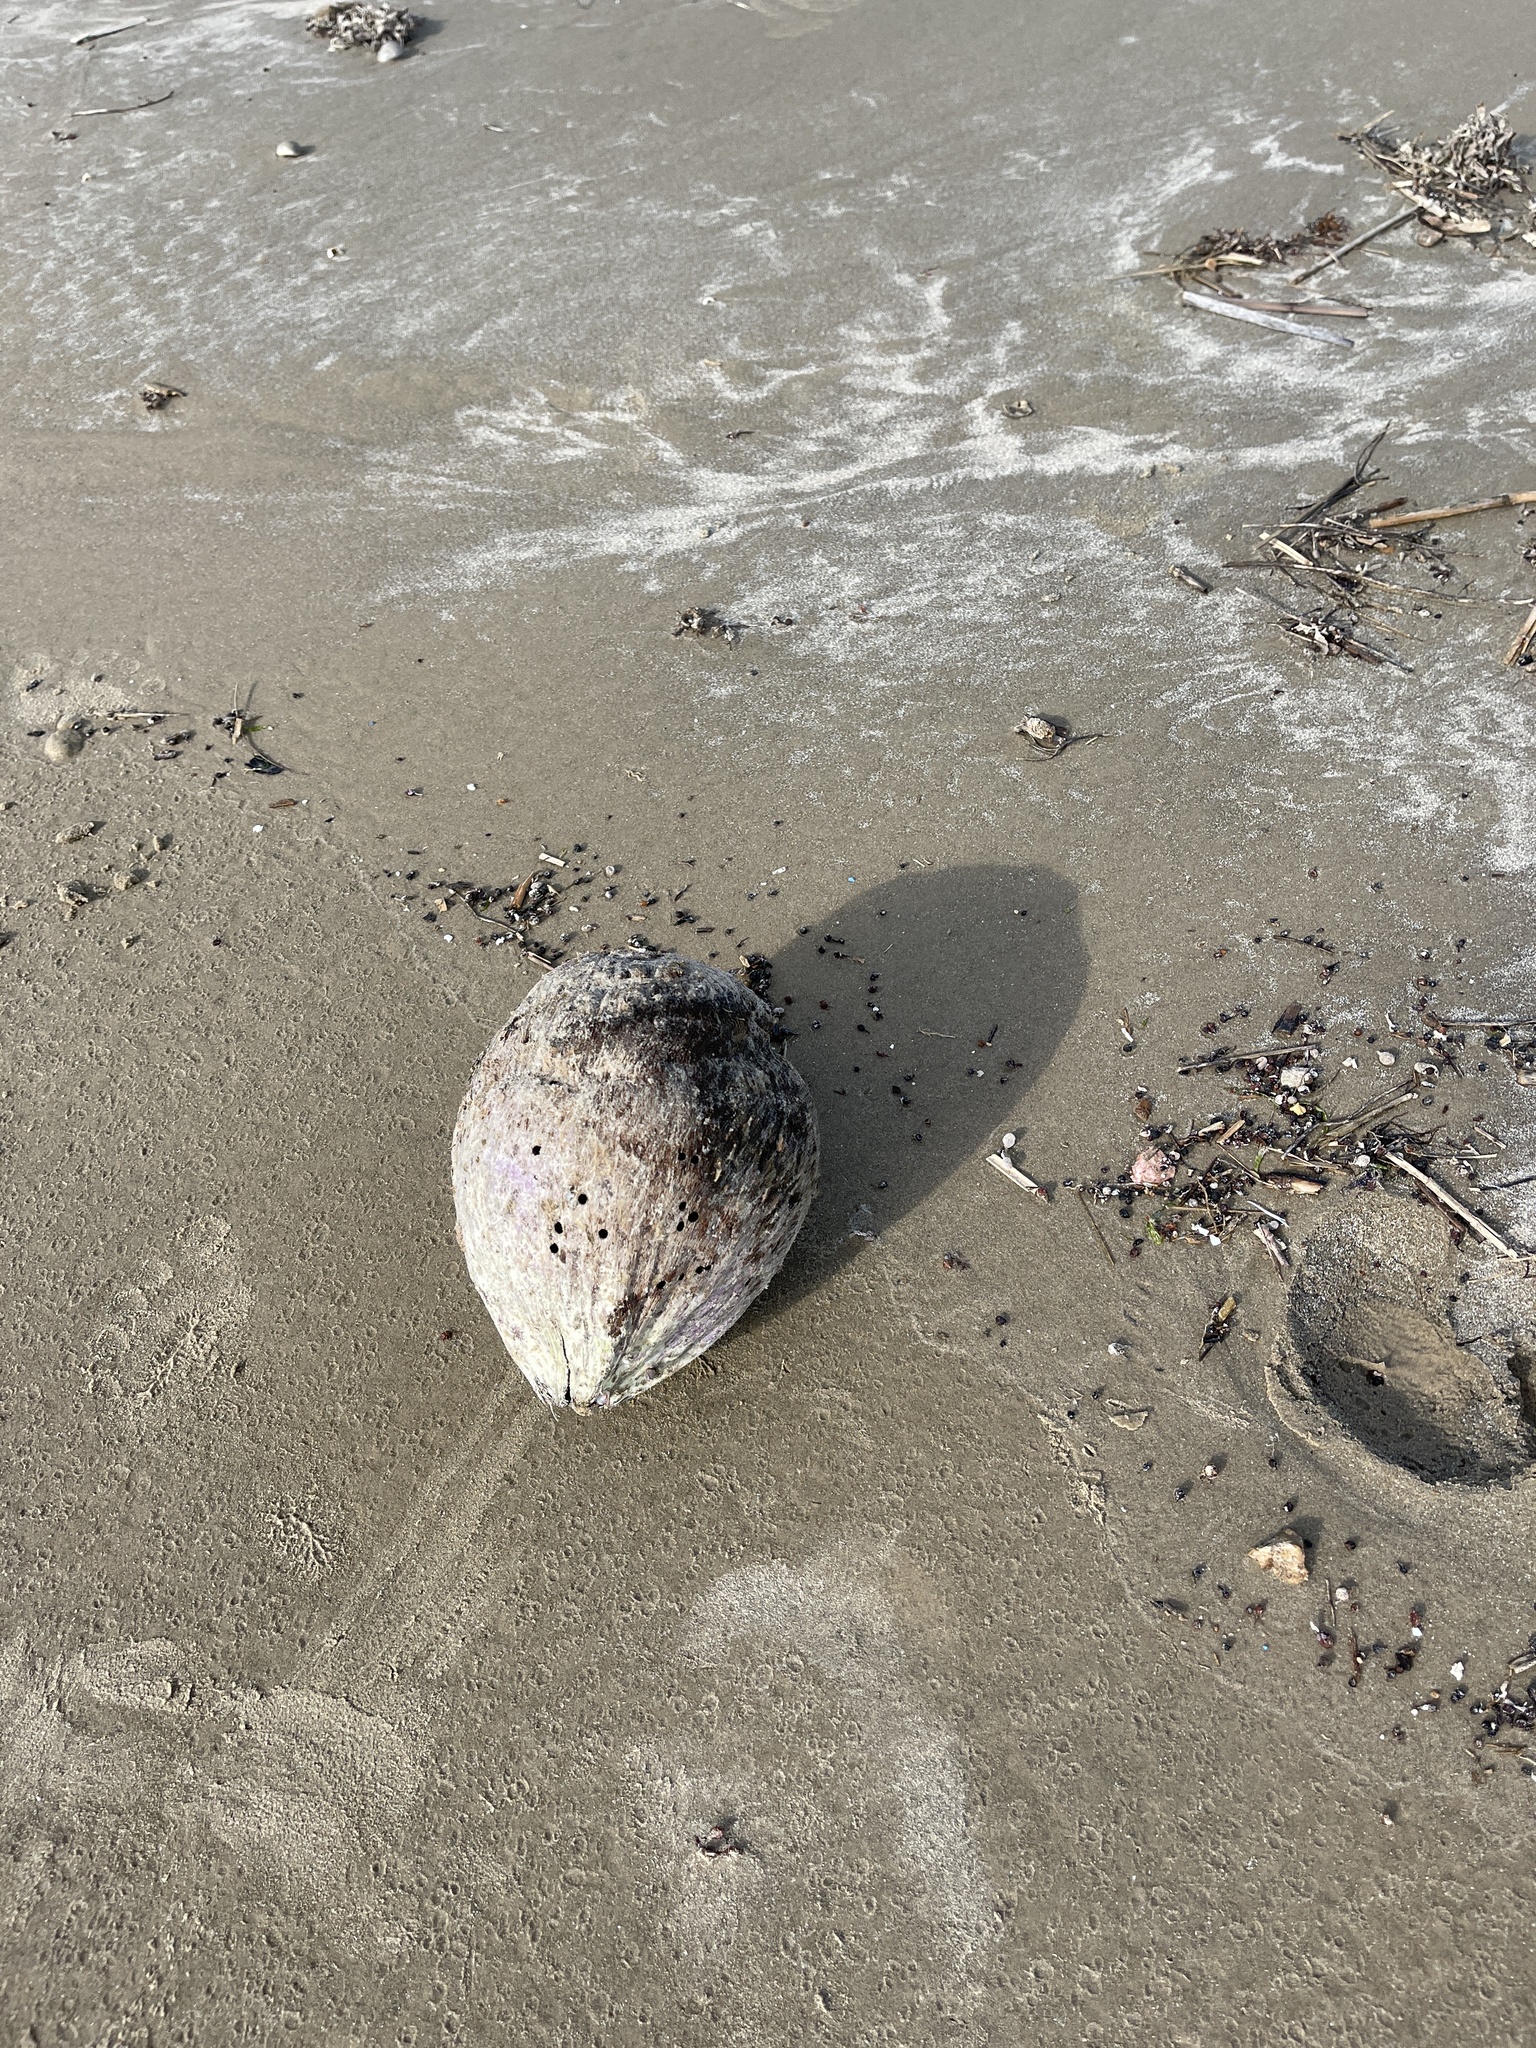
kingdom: Plantae
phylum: Tracheophyta
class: Liliopsida
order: Arecales
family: Arecaceae
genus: Cocos
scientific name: Cocos nucifera
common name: Coconut palm
